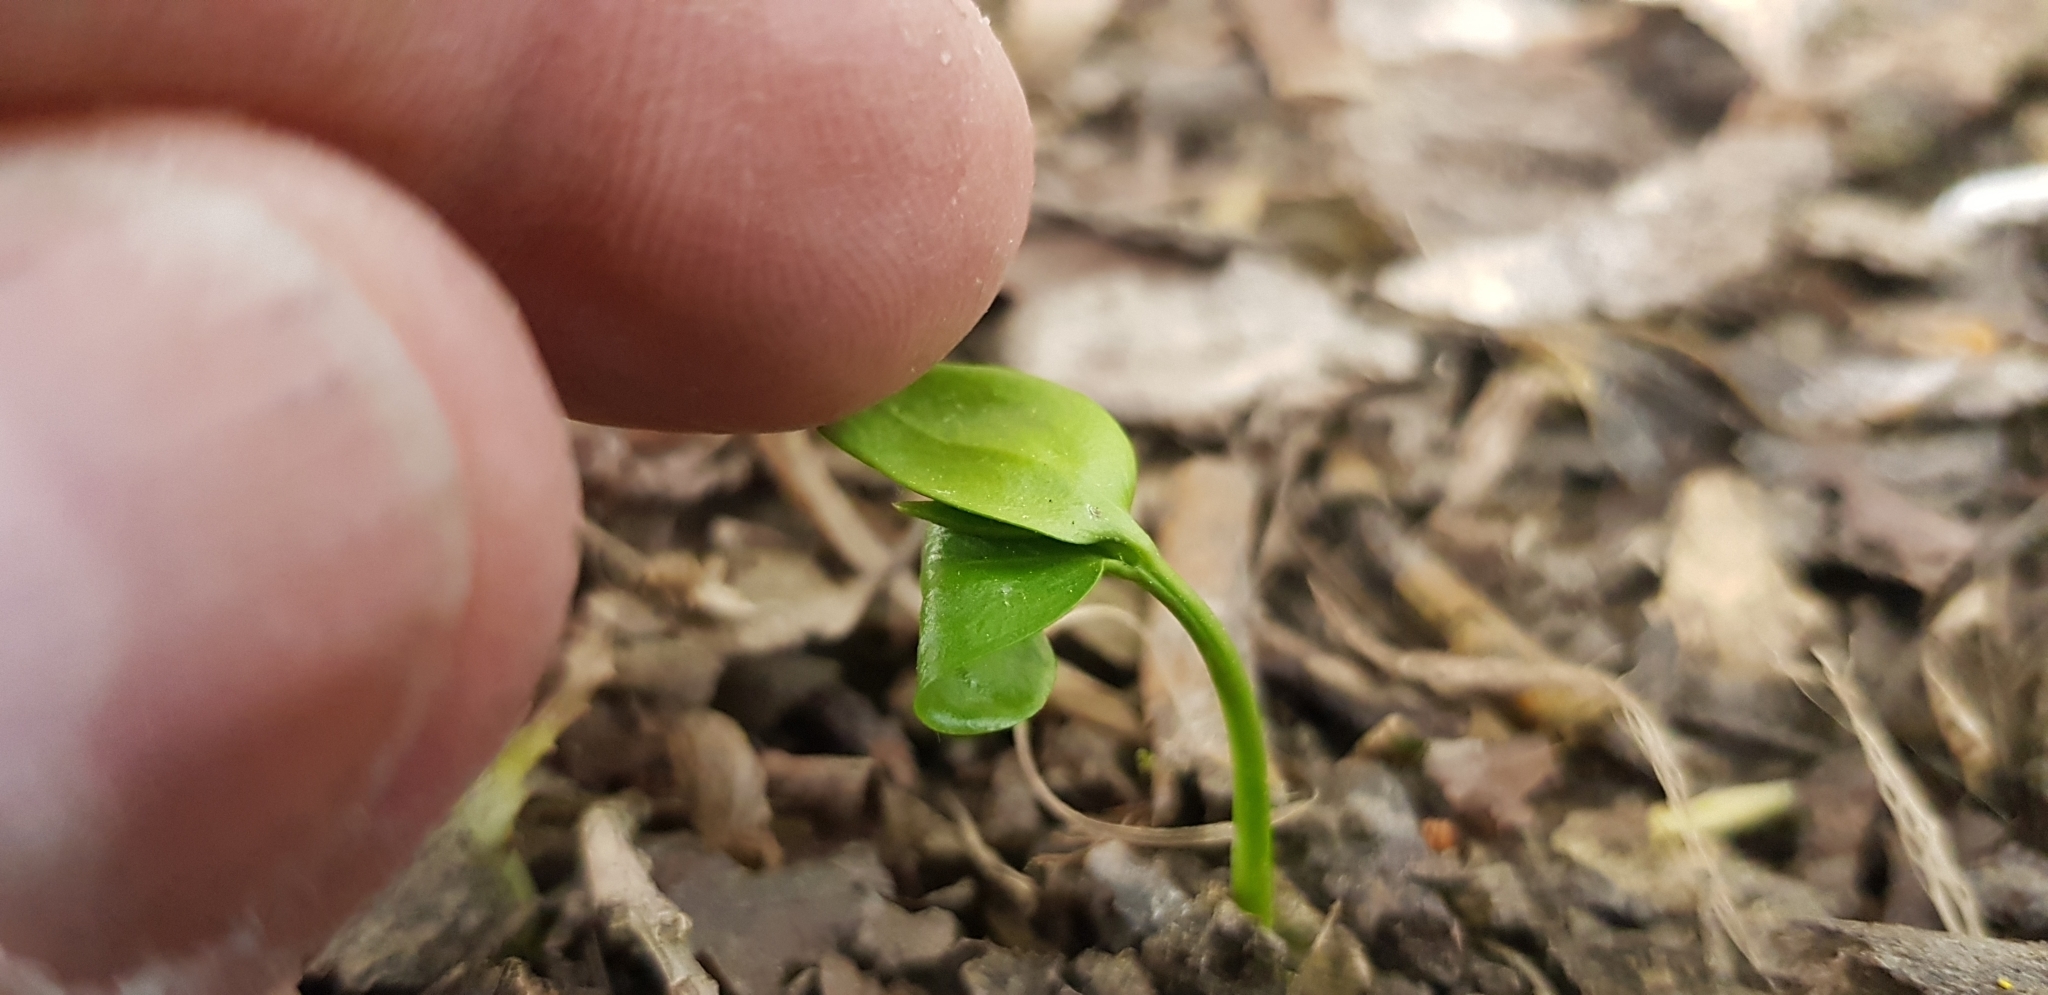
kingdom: Plantae
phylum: Tracheophyta
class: Magnoliopsida
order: Apiales
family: Griseliniaceae
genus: Griselinia
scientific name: Griselinia littoralis
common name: New zealand broadleaf
